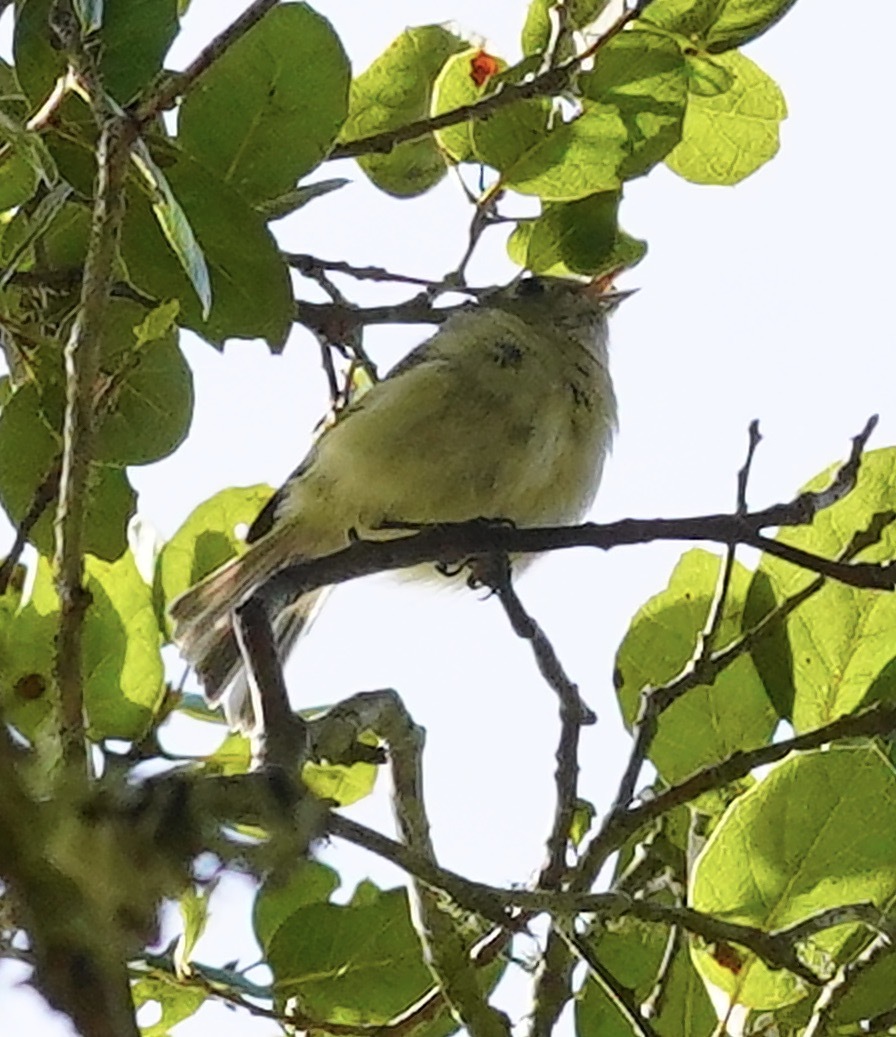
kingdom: Animalia
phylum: Chordata
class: Aves
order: Passeriformes
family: Vireonidae
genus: Vireo
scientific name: Vireo huttoni
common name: Hutton's vireo
